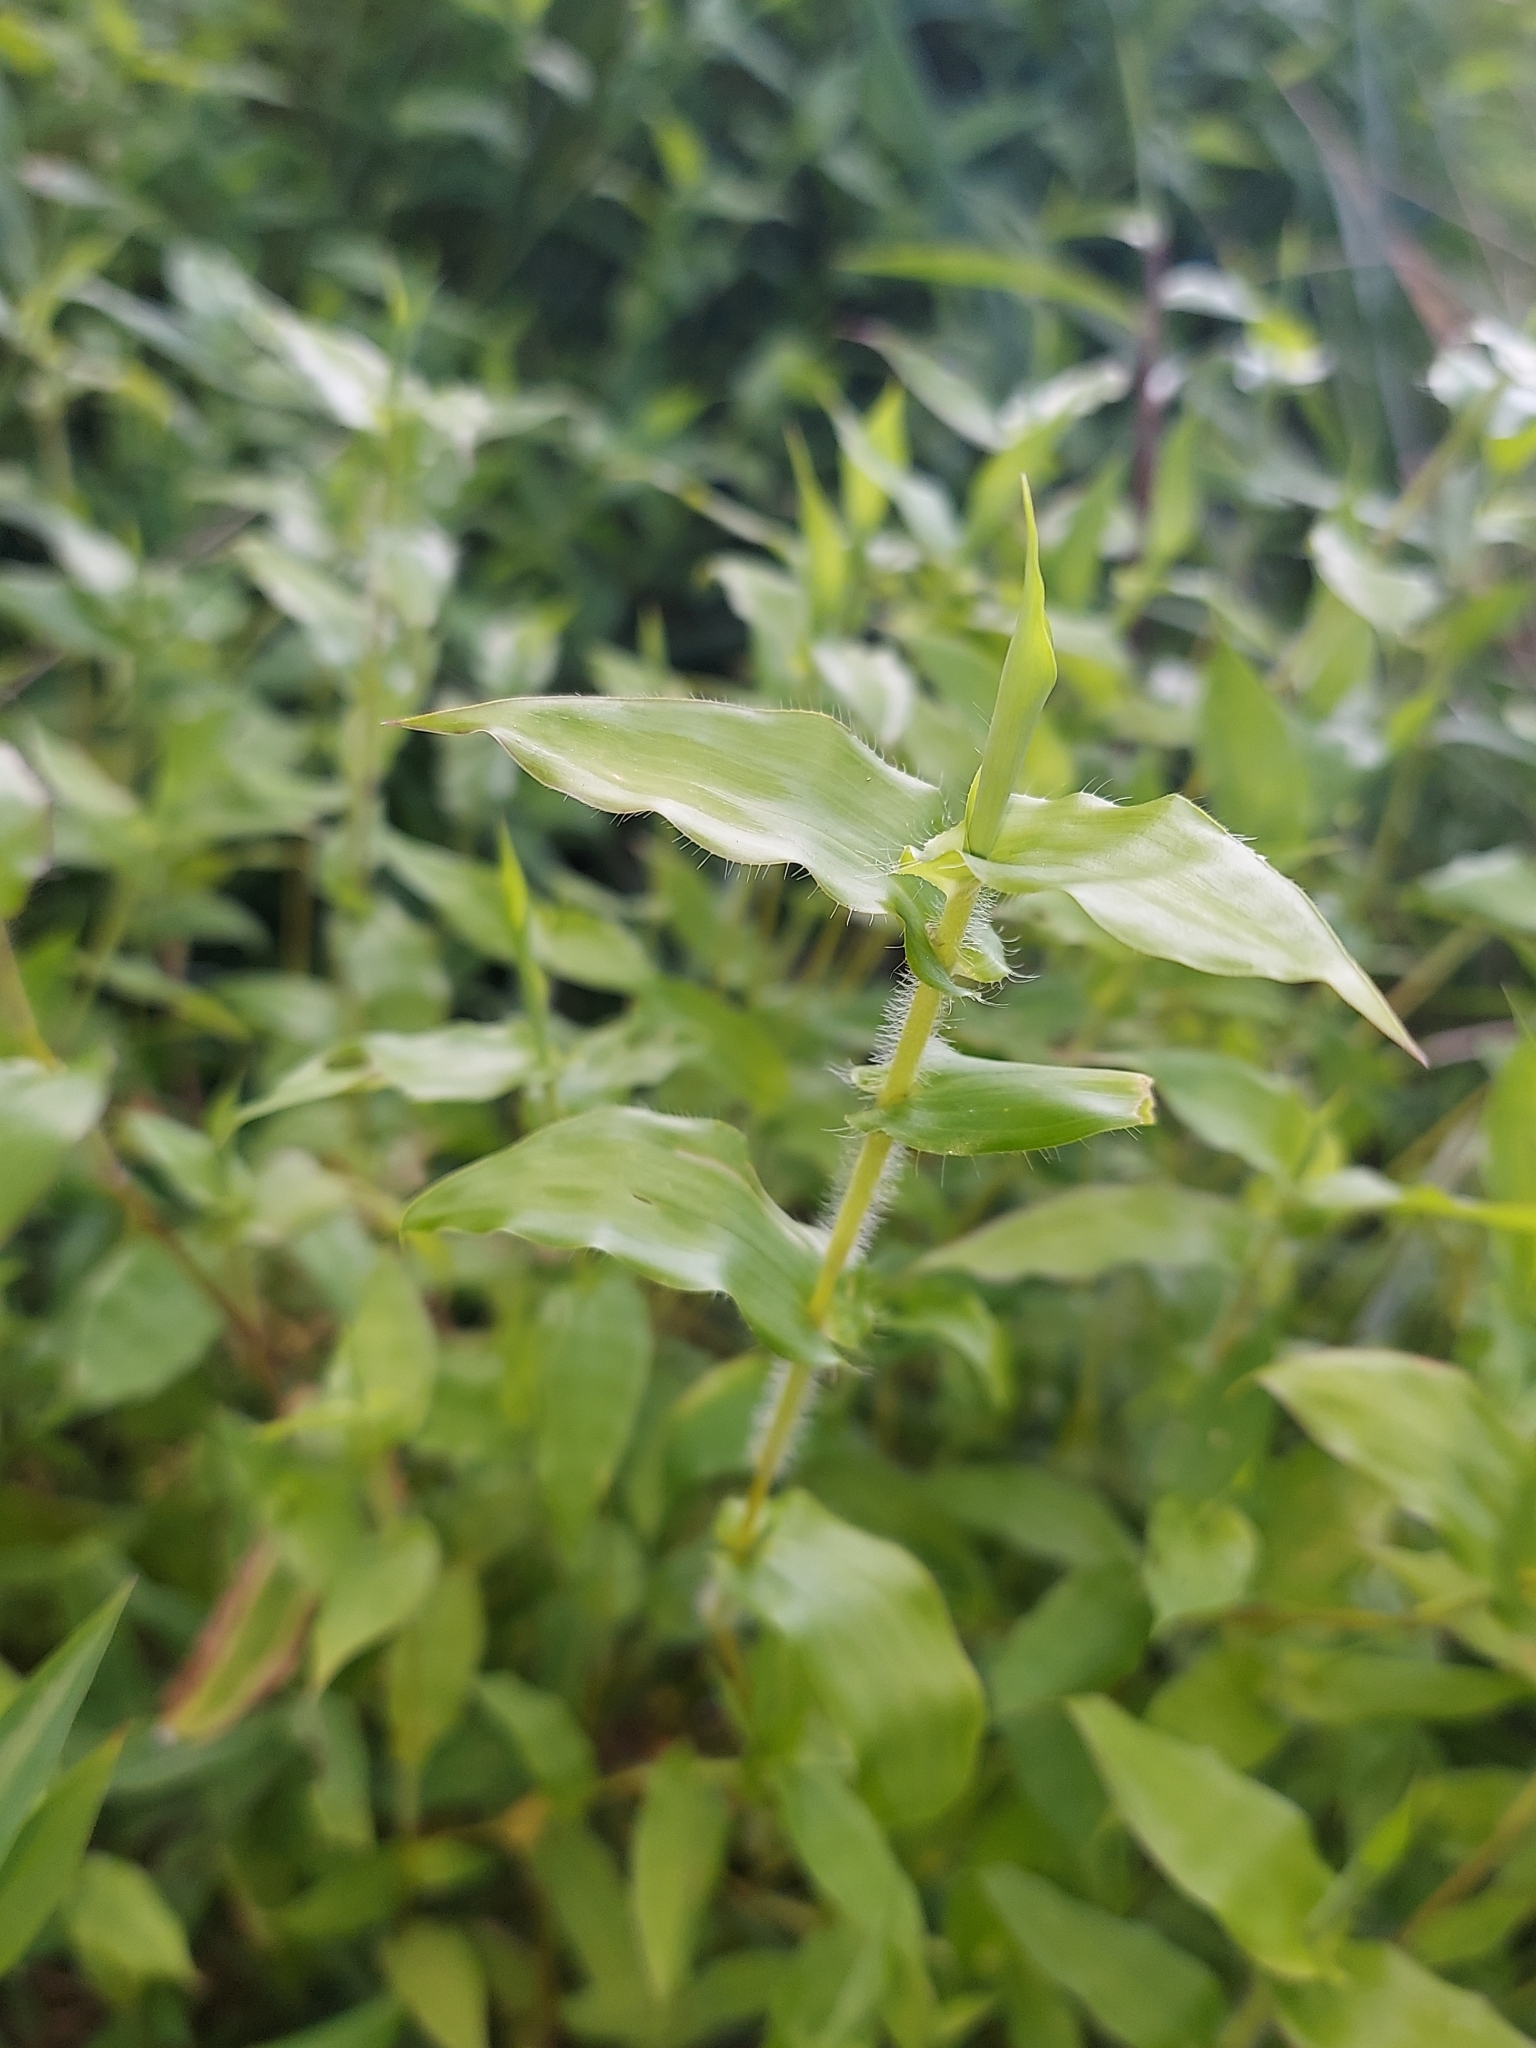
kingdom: Plantae
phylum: Tracheophyta
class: Liliopsida
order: Poales
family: Poaceae
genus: Arthraxon
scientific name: Arthraxon hispidus
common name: Small carpgrass
